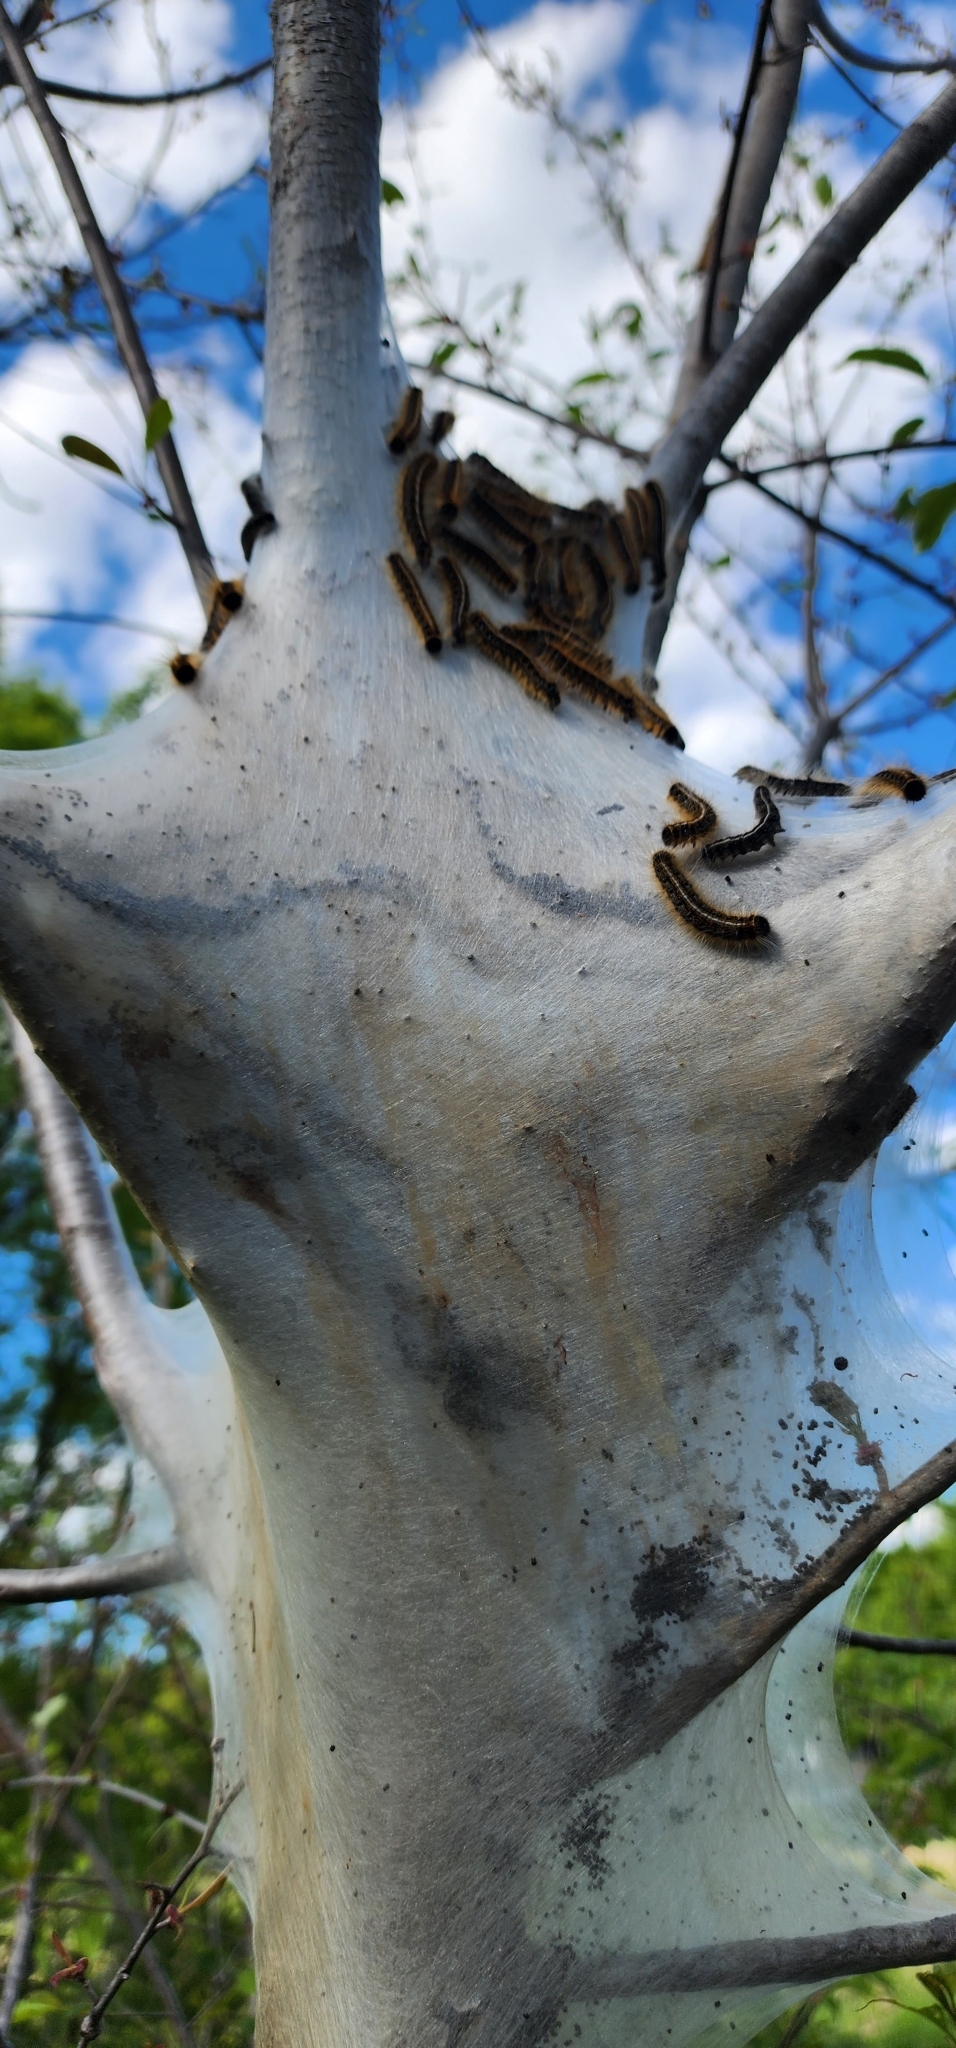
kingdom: Animalia
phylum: Arthropoda
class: Insecta
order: Lepidoptera
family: Lasiocampidae
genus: Malacosoma
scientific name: Malacosoma americana
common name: Eastern tent caterpillar moth
